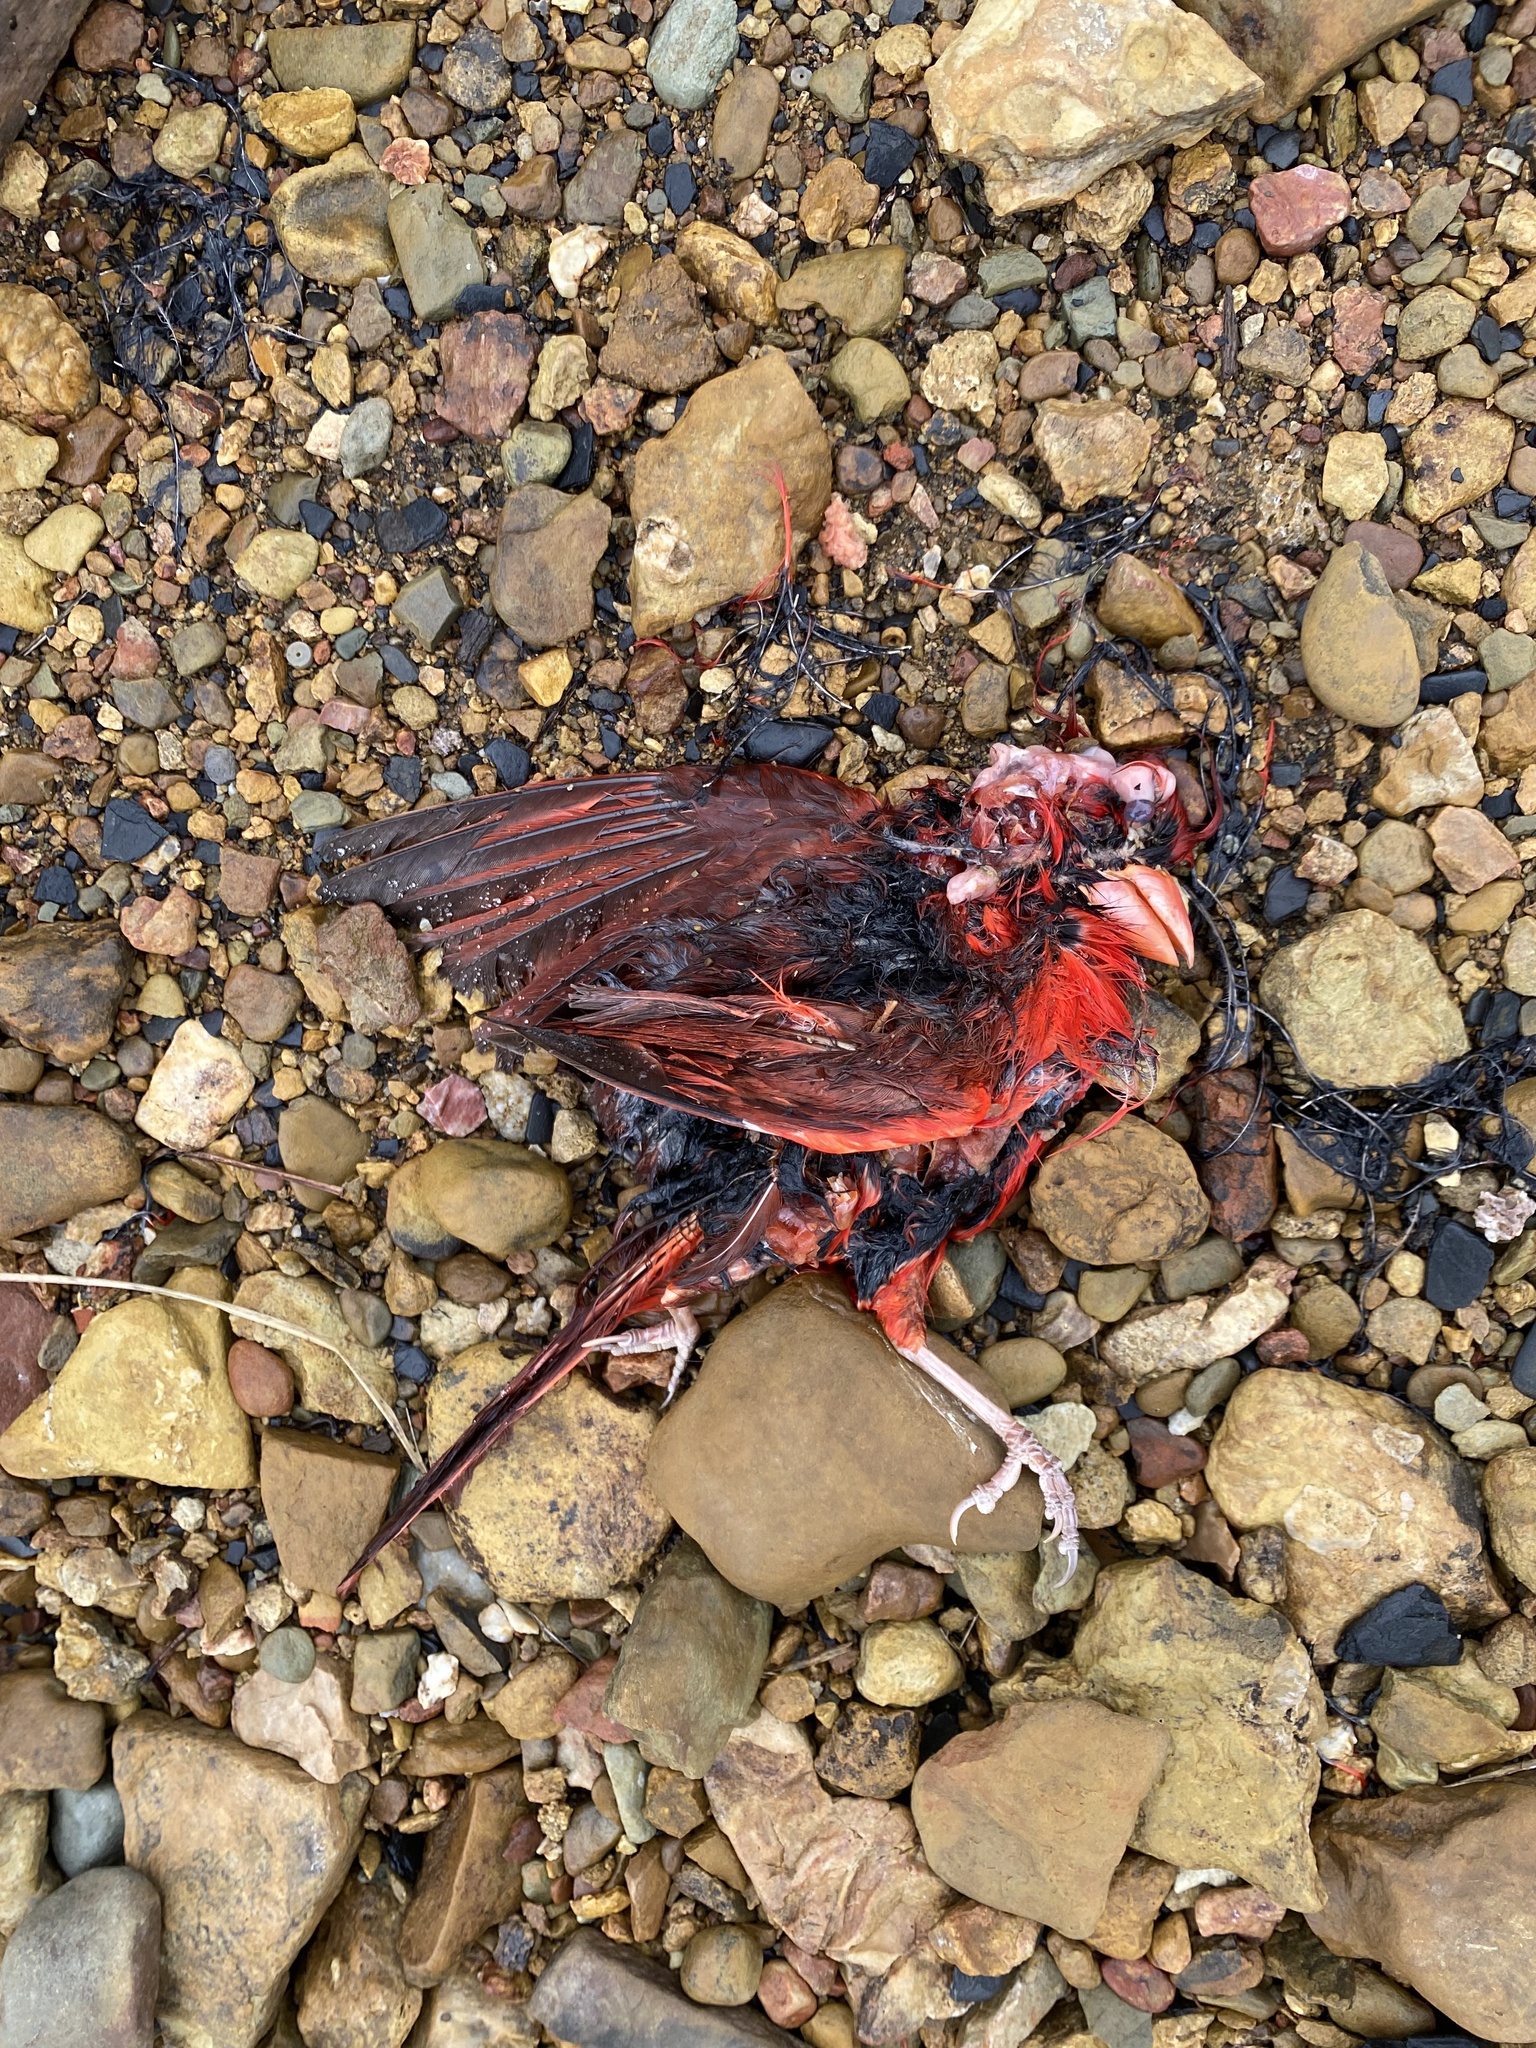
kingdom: Animalia
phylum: Chordata
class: Aves
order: Passeriformes
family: Cardinalidae
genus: Cardinalis
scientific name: Cardinalis cardinalis
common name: Northern cardinal
